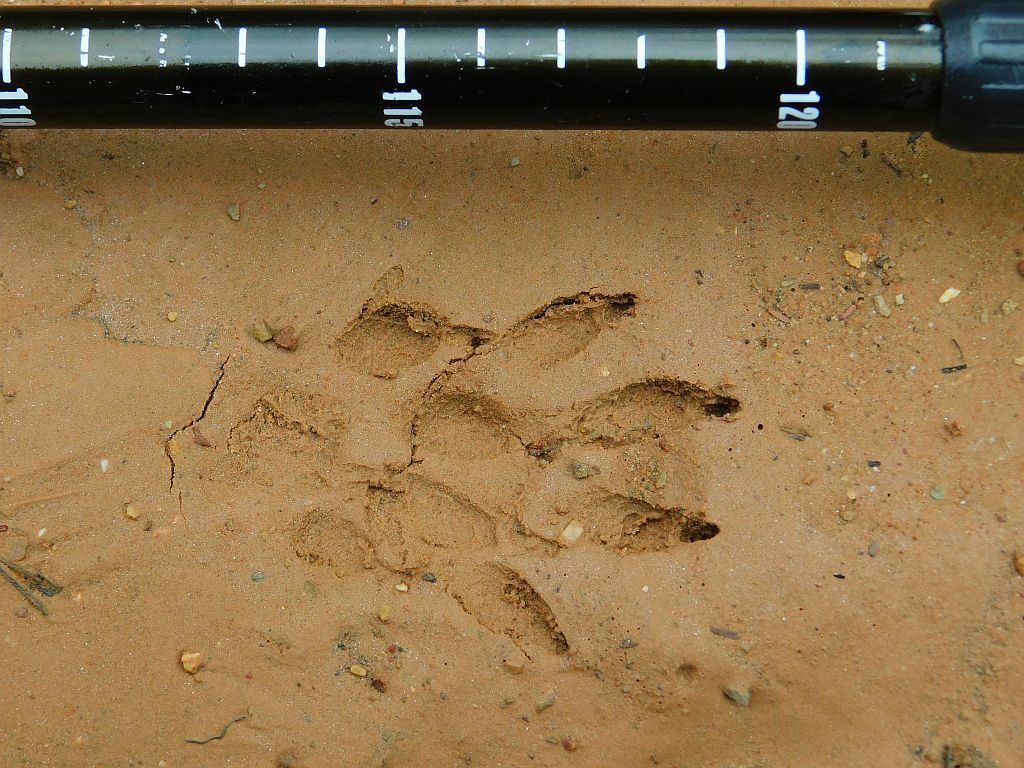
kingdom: Animalia
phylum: Chordata
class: Mammalia
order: Carnivora
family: Herpestidae
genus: Atilax
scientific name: Atilax paludinosus
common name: Marsh mongoose
